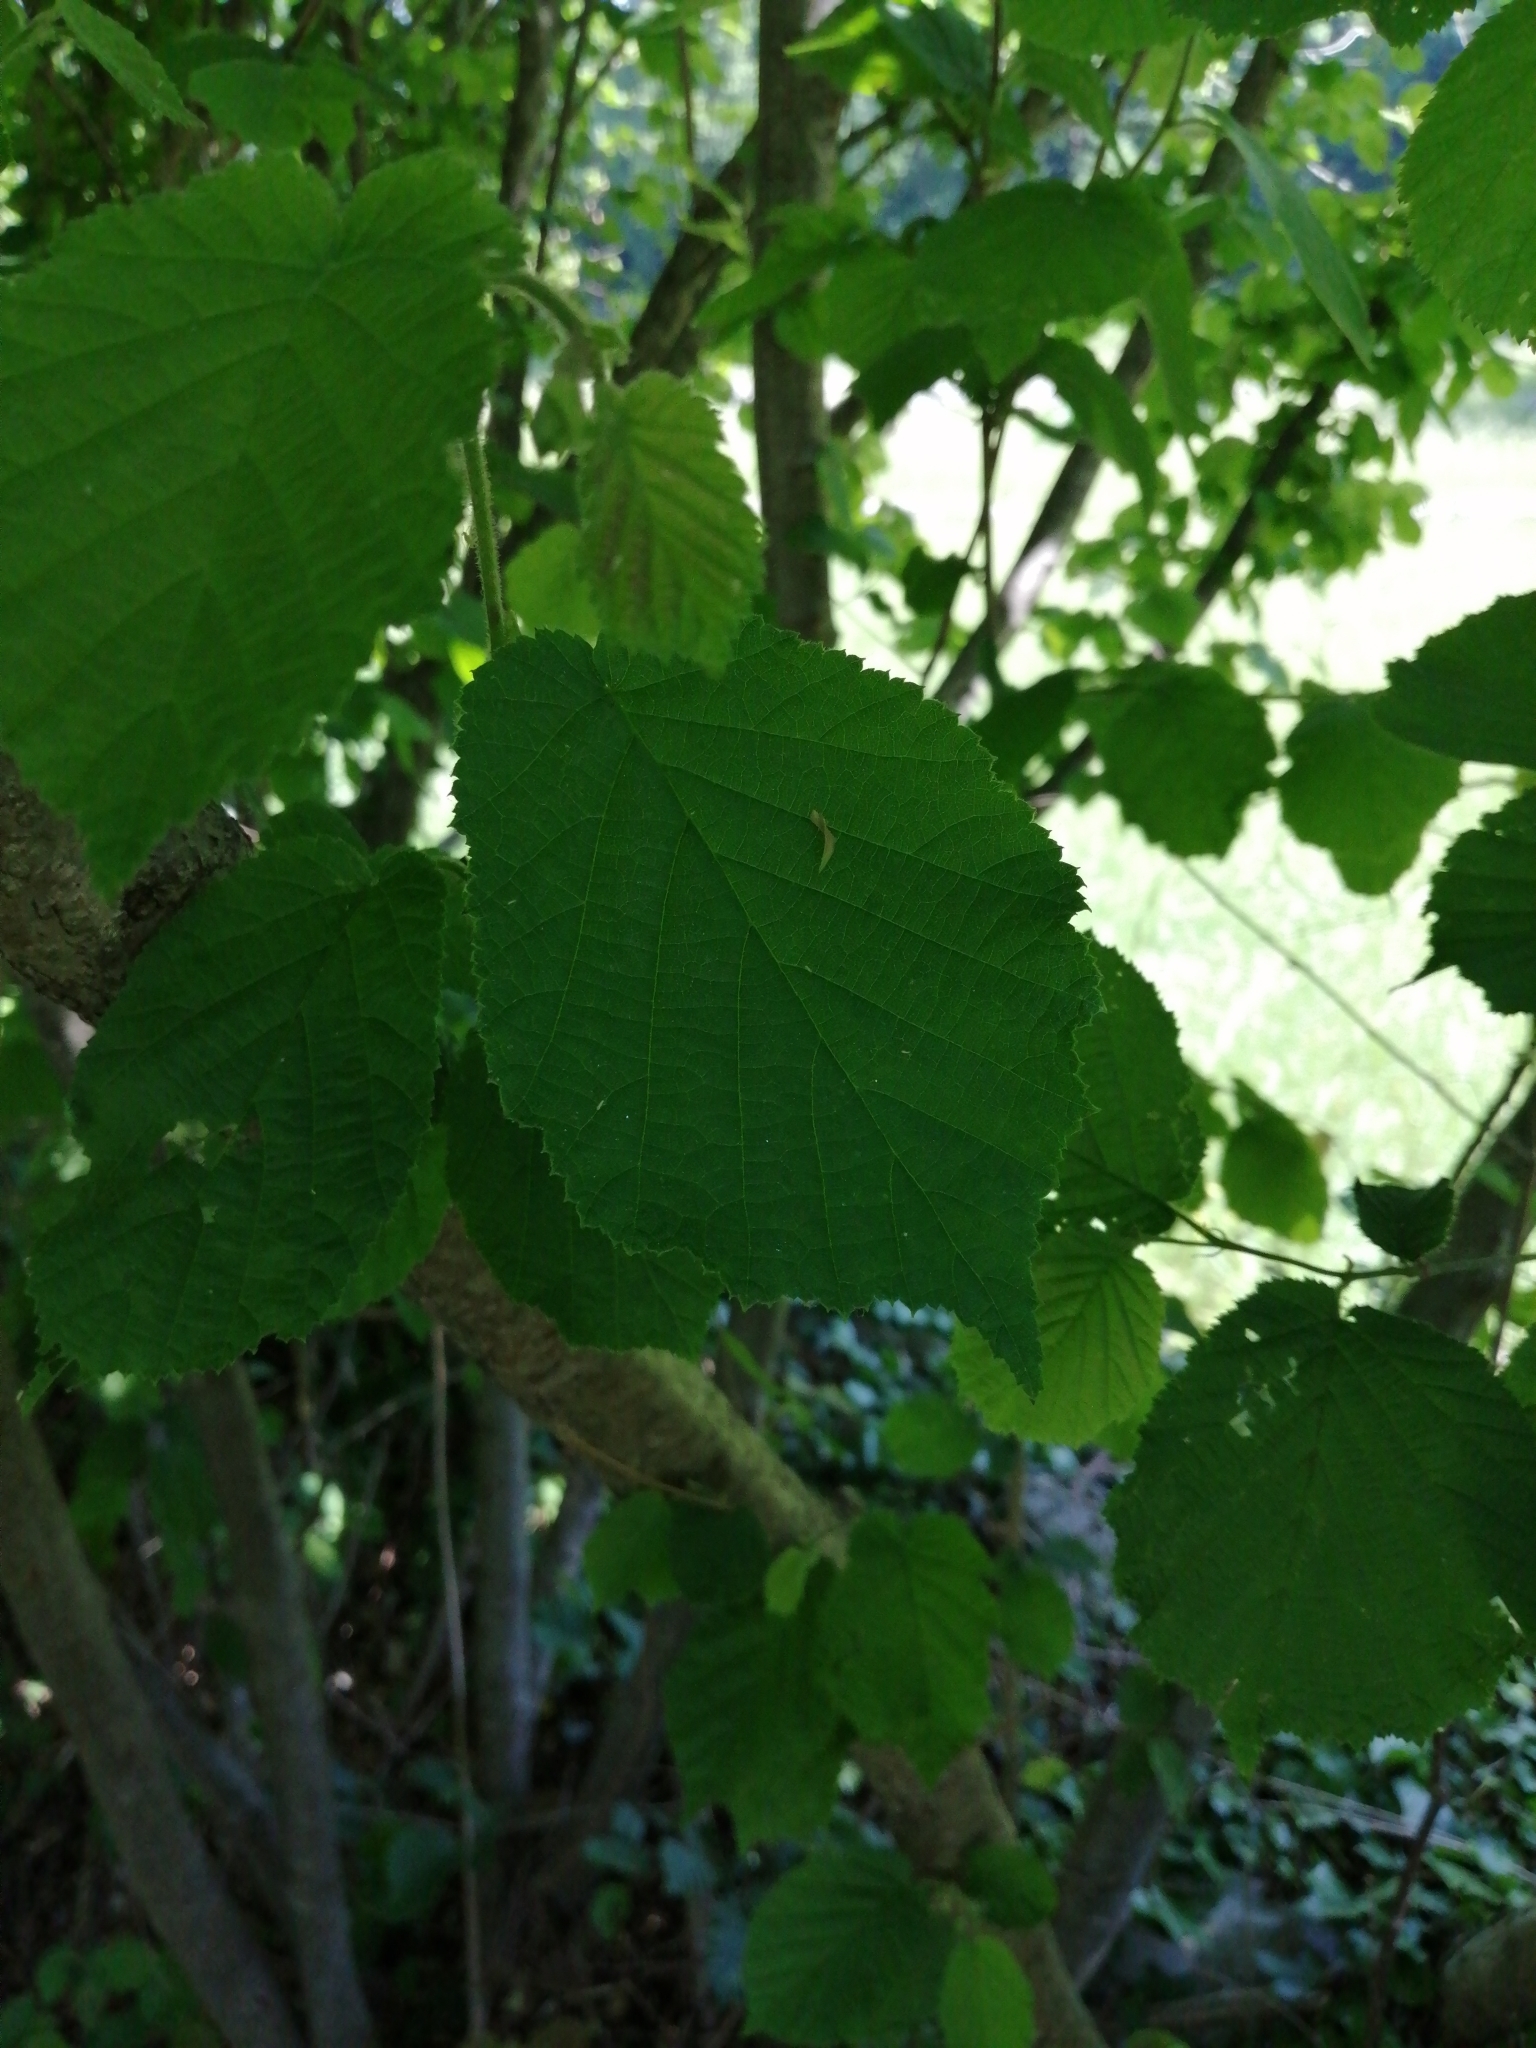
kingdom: Plantae
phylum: Tracheophyta
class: Magnoliopsida
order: Fagales
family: Betulaceae
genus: Corylus
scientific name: Corylus avellana
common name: European hazel
